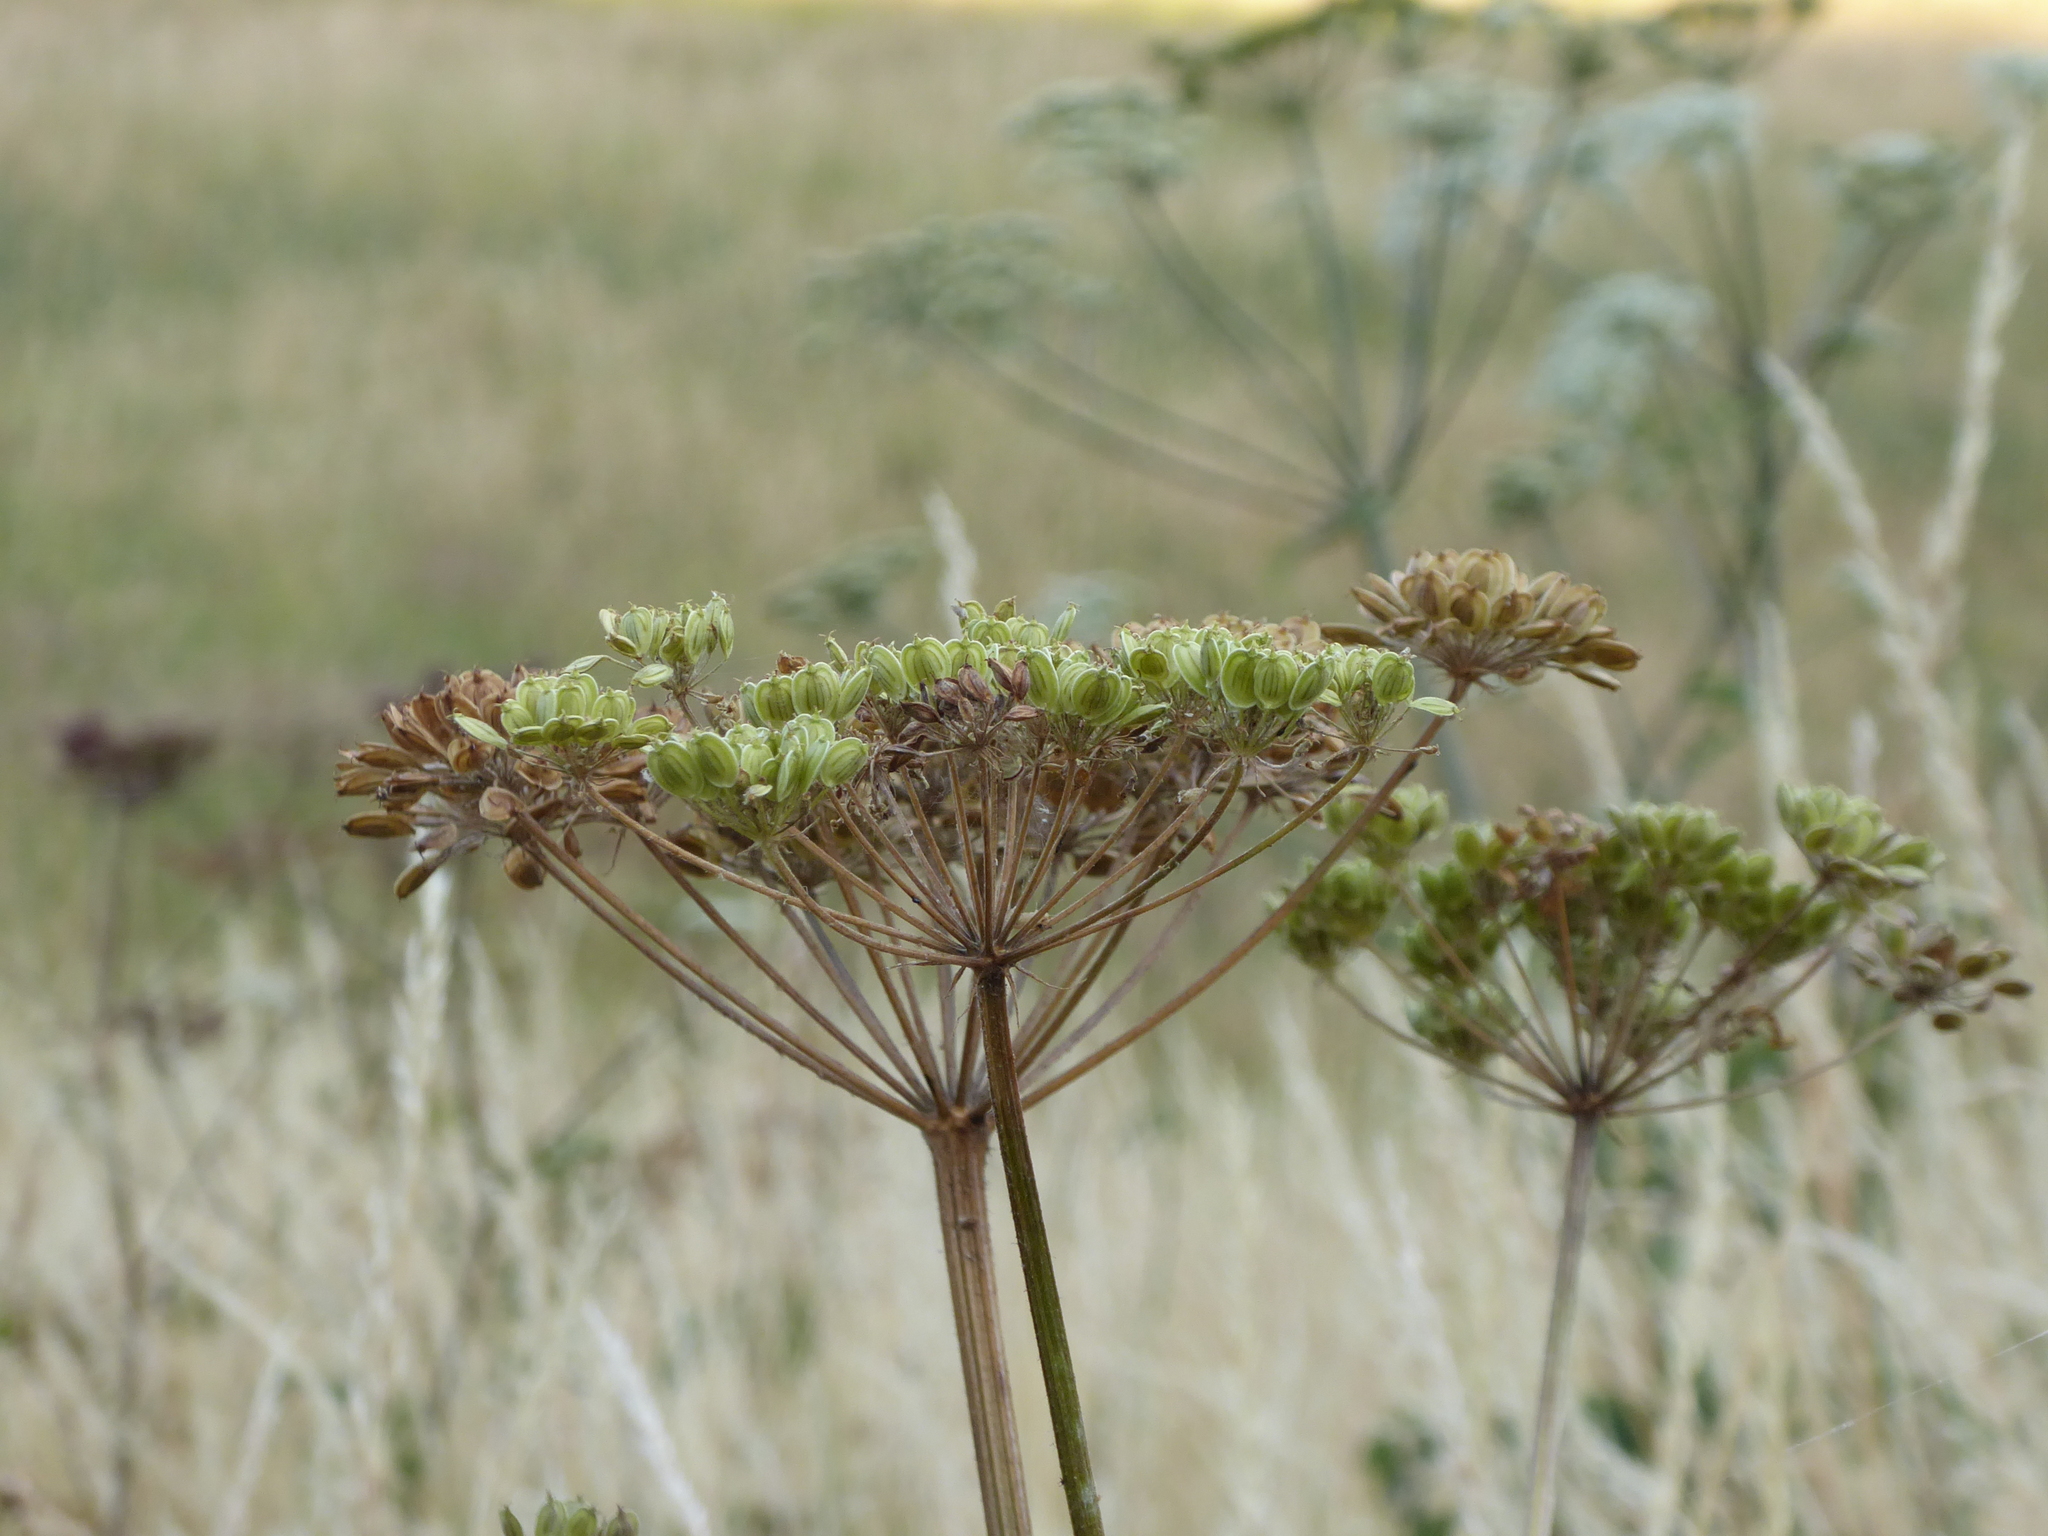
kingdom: Plantae
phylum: Tracheophyta
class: Magnoliopsida
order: Apiales
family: Apiaceae
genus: Heracleum
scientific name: Heracleum sphondylium
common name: Hogweed
